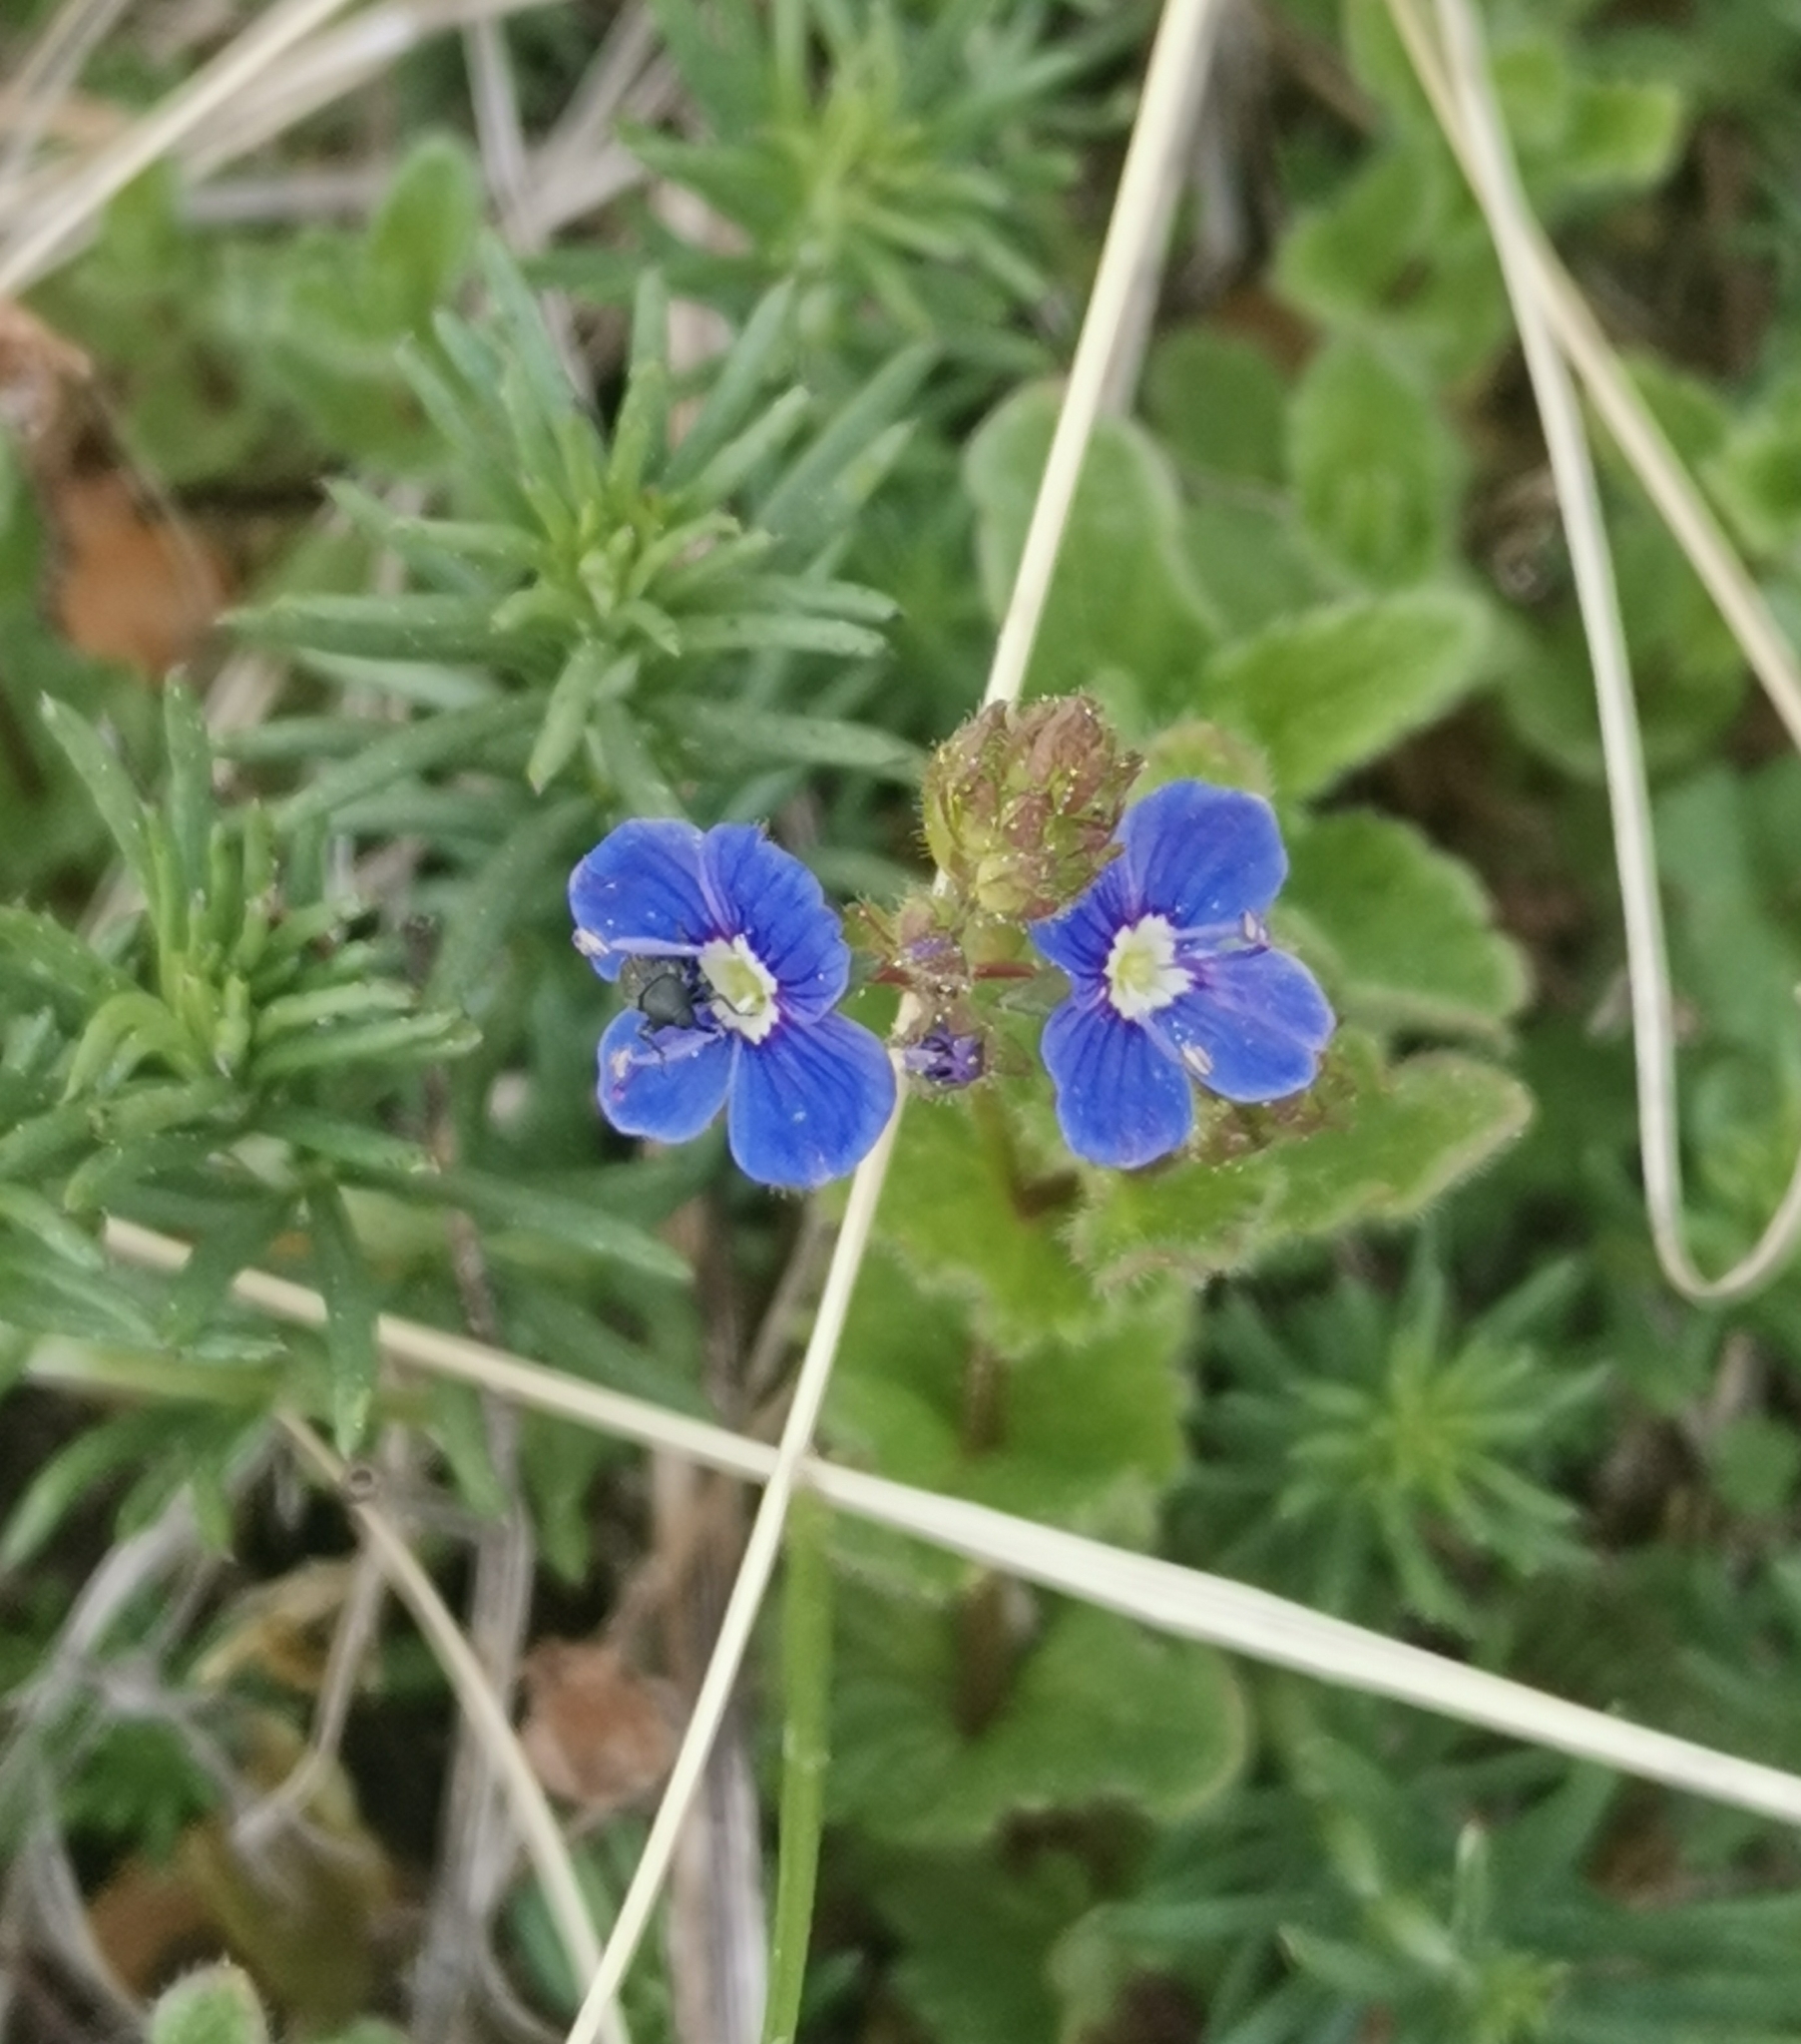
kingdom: Plantae
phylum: Tracheophyta
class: Magnoliopsida
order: Lamiales
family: Plantaginaceae
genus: Veronica
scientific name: Veronica chamaedrys
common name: Germander speedwell
